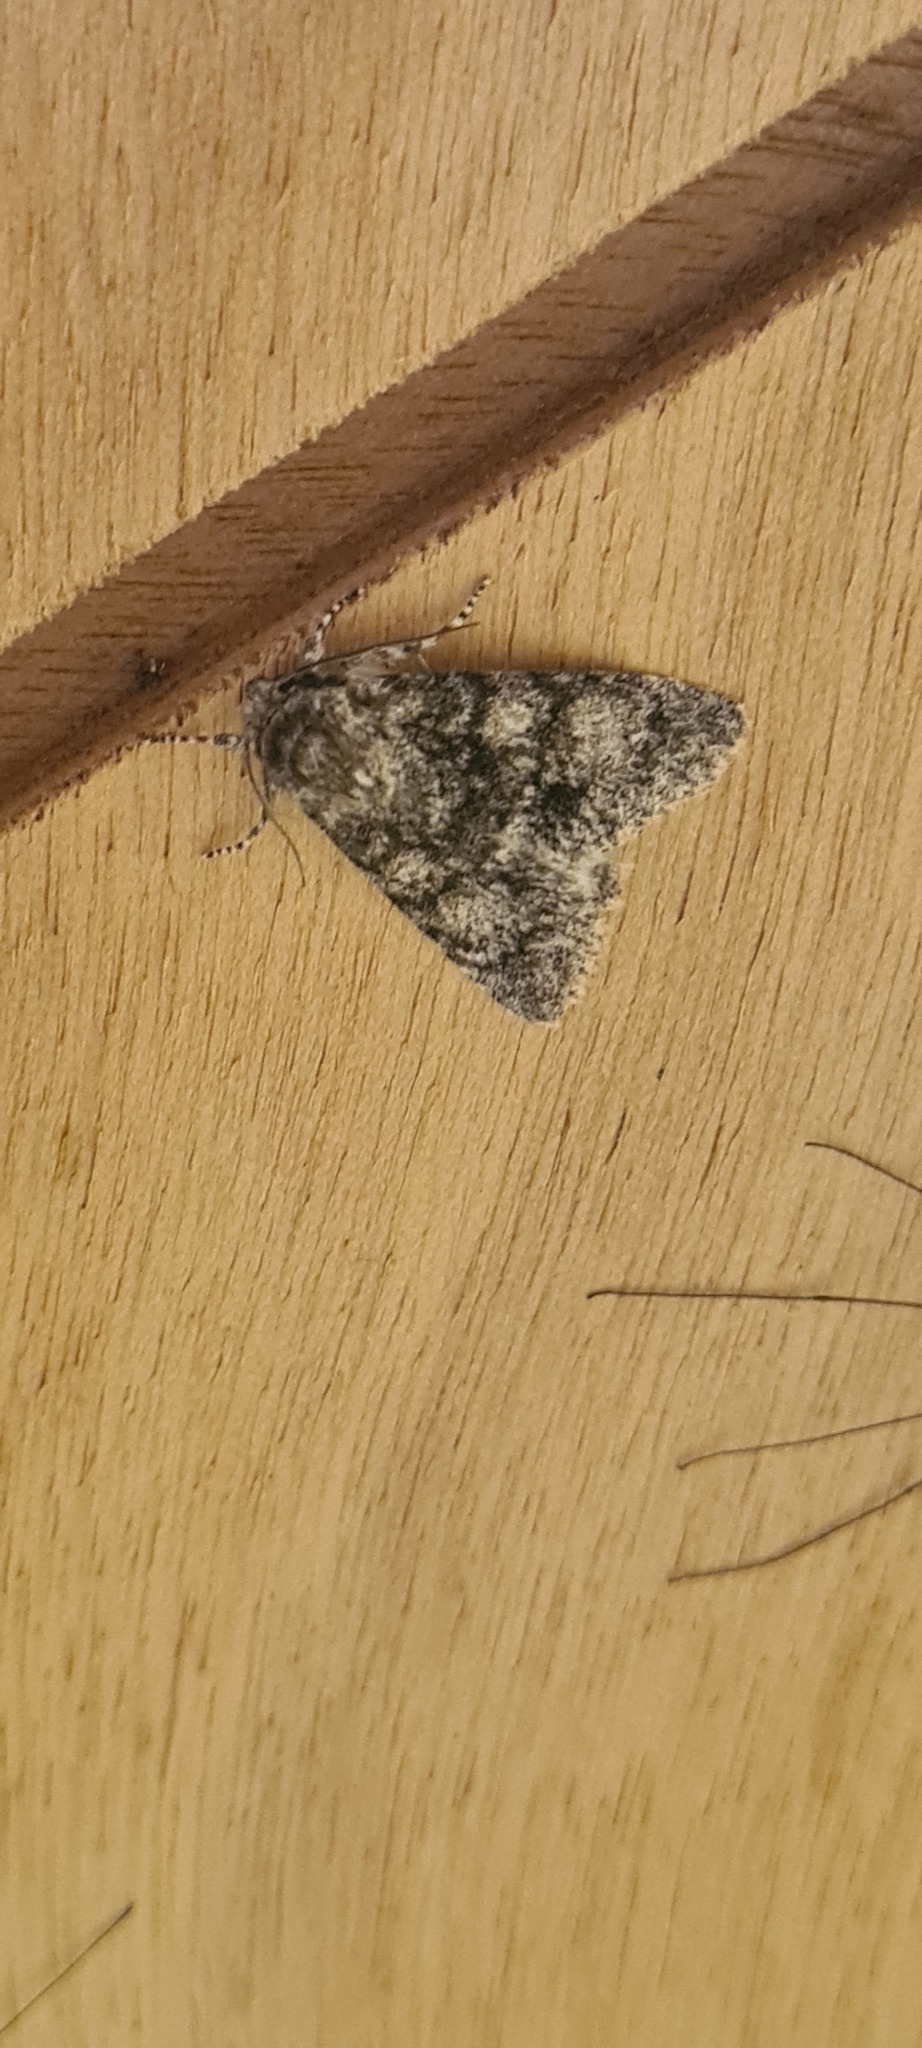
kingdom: Animalia
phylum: Arthropoda
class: Insecta
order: Lepidoptera
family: Noctuidae
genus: Acronicta
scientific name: Acronicta megacephala
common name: Poplar grey
